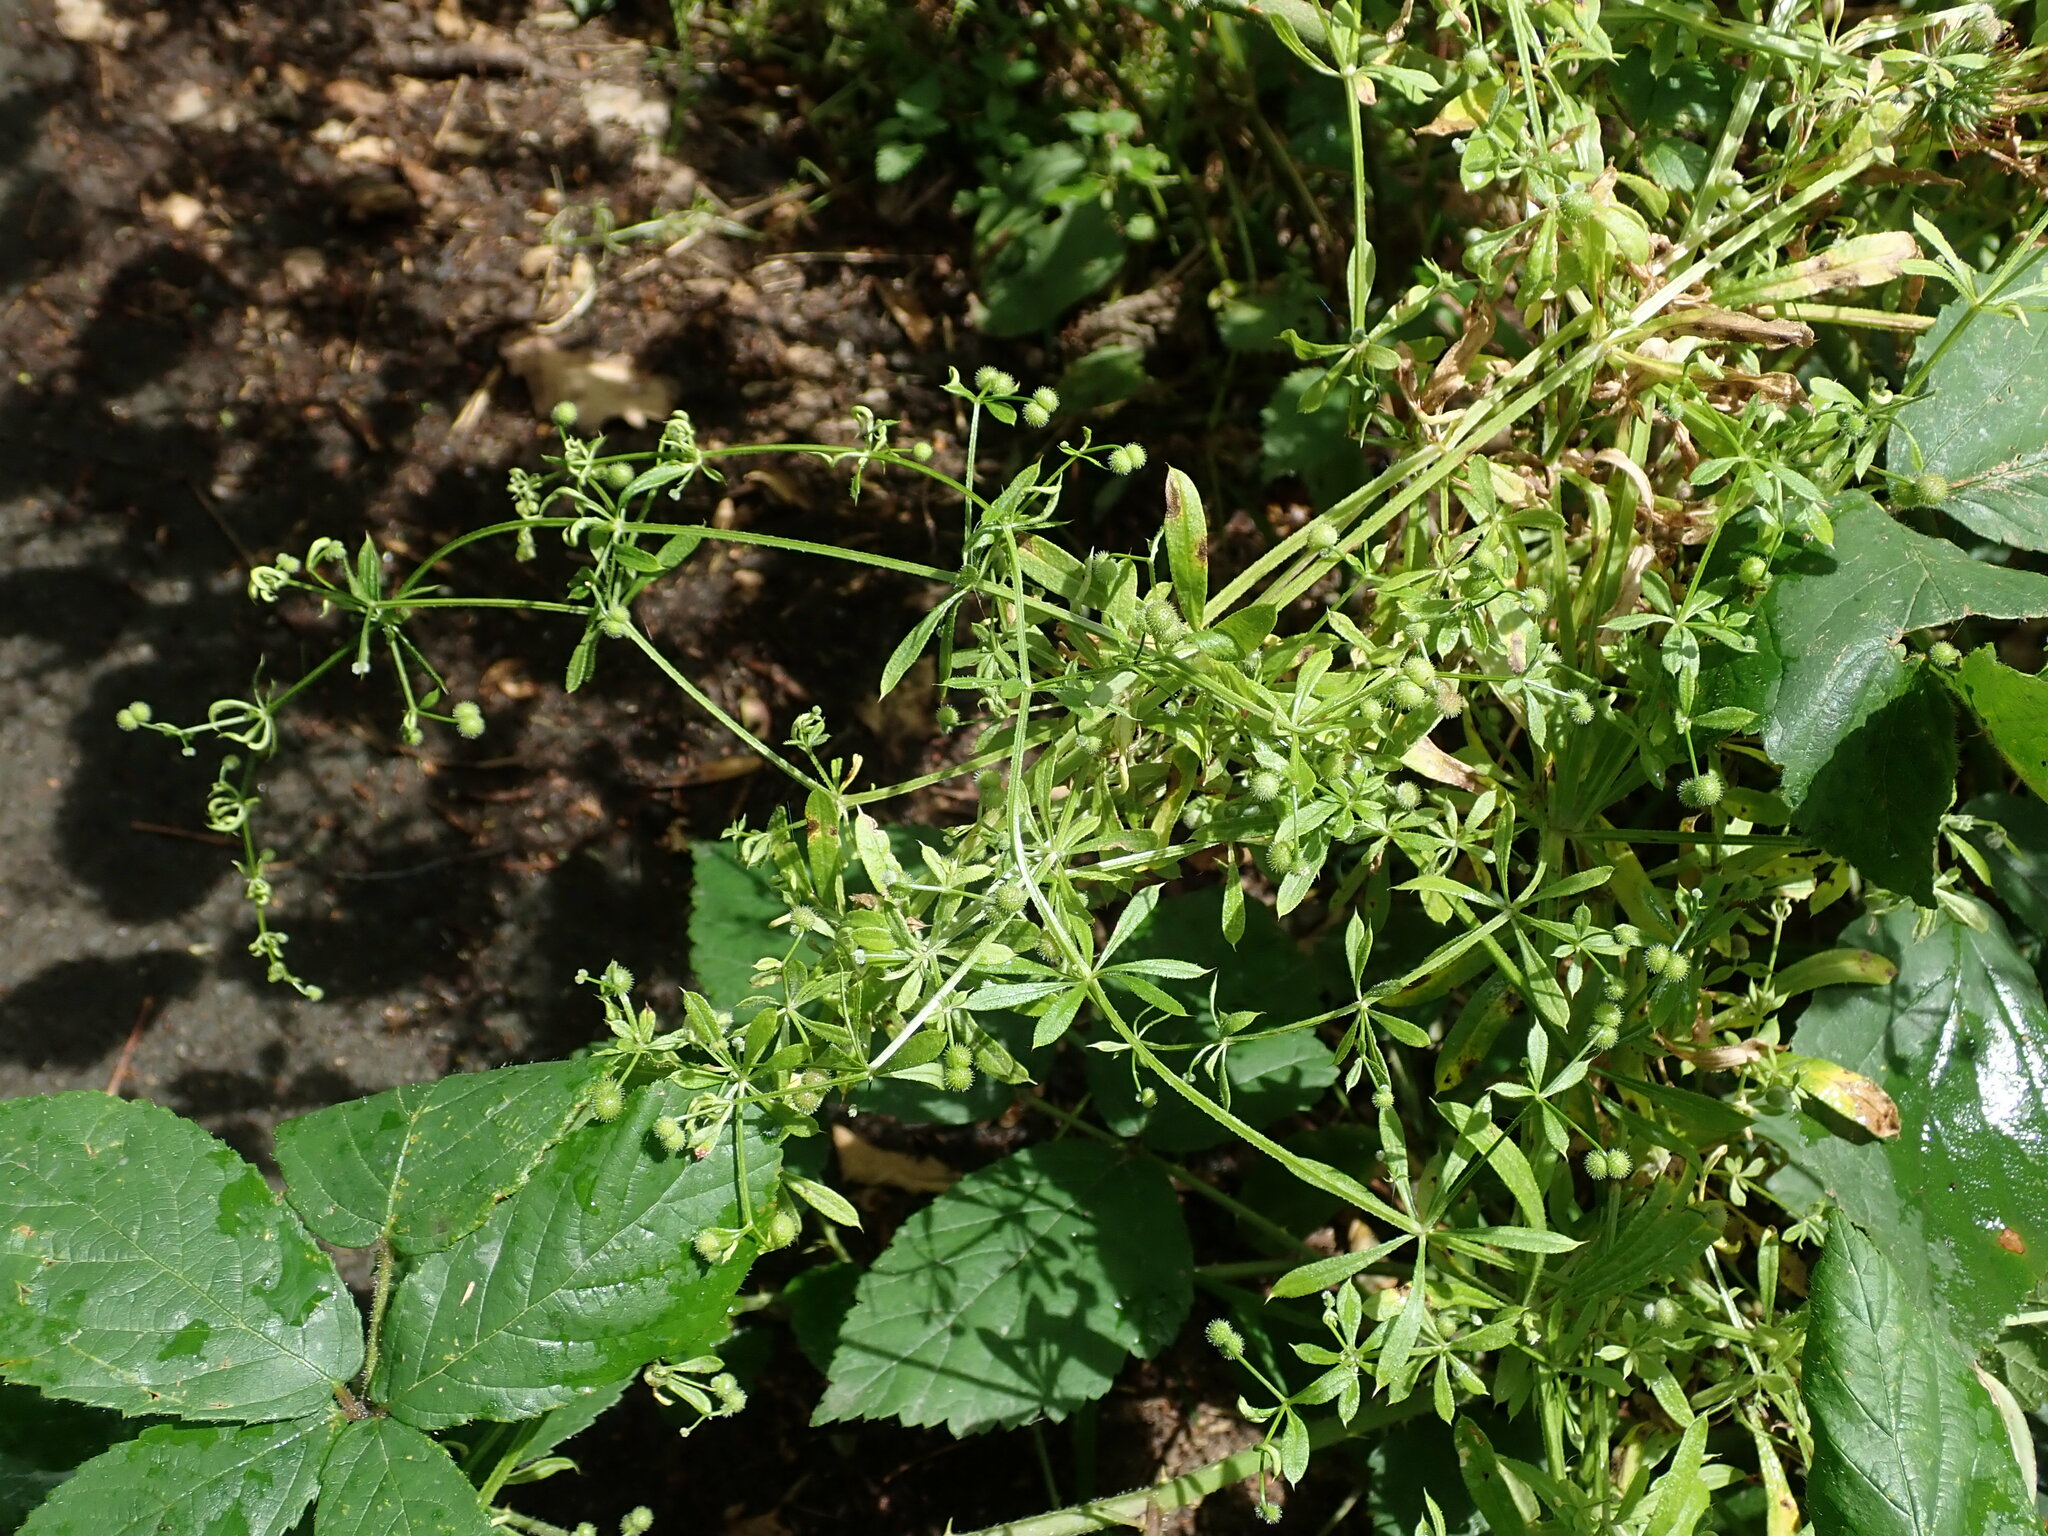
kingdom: Plantae
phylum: Tracheophyta
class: Magnoliopsida
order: Gentianales
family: Rubiaceae
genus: Galium
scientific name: Galium aparine
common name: Cleavers
